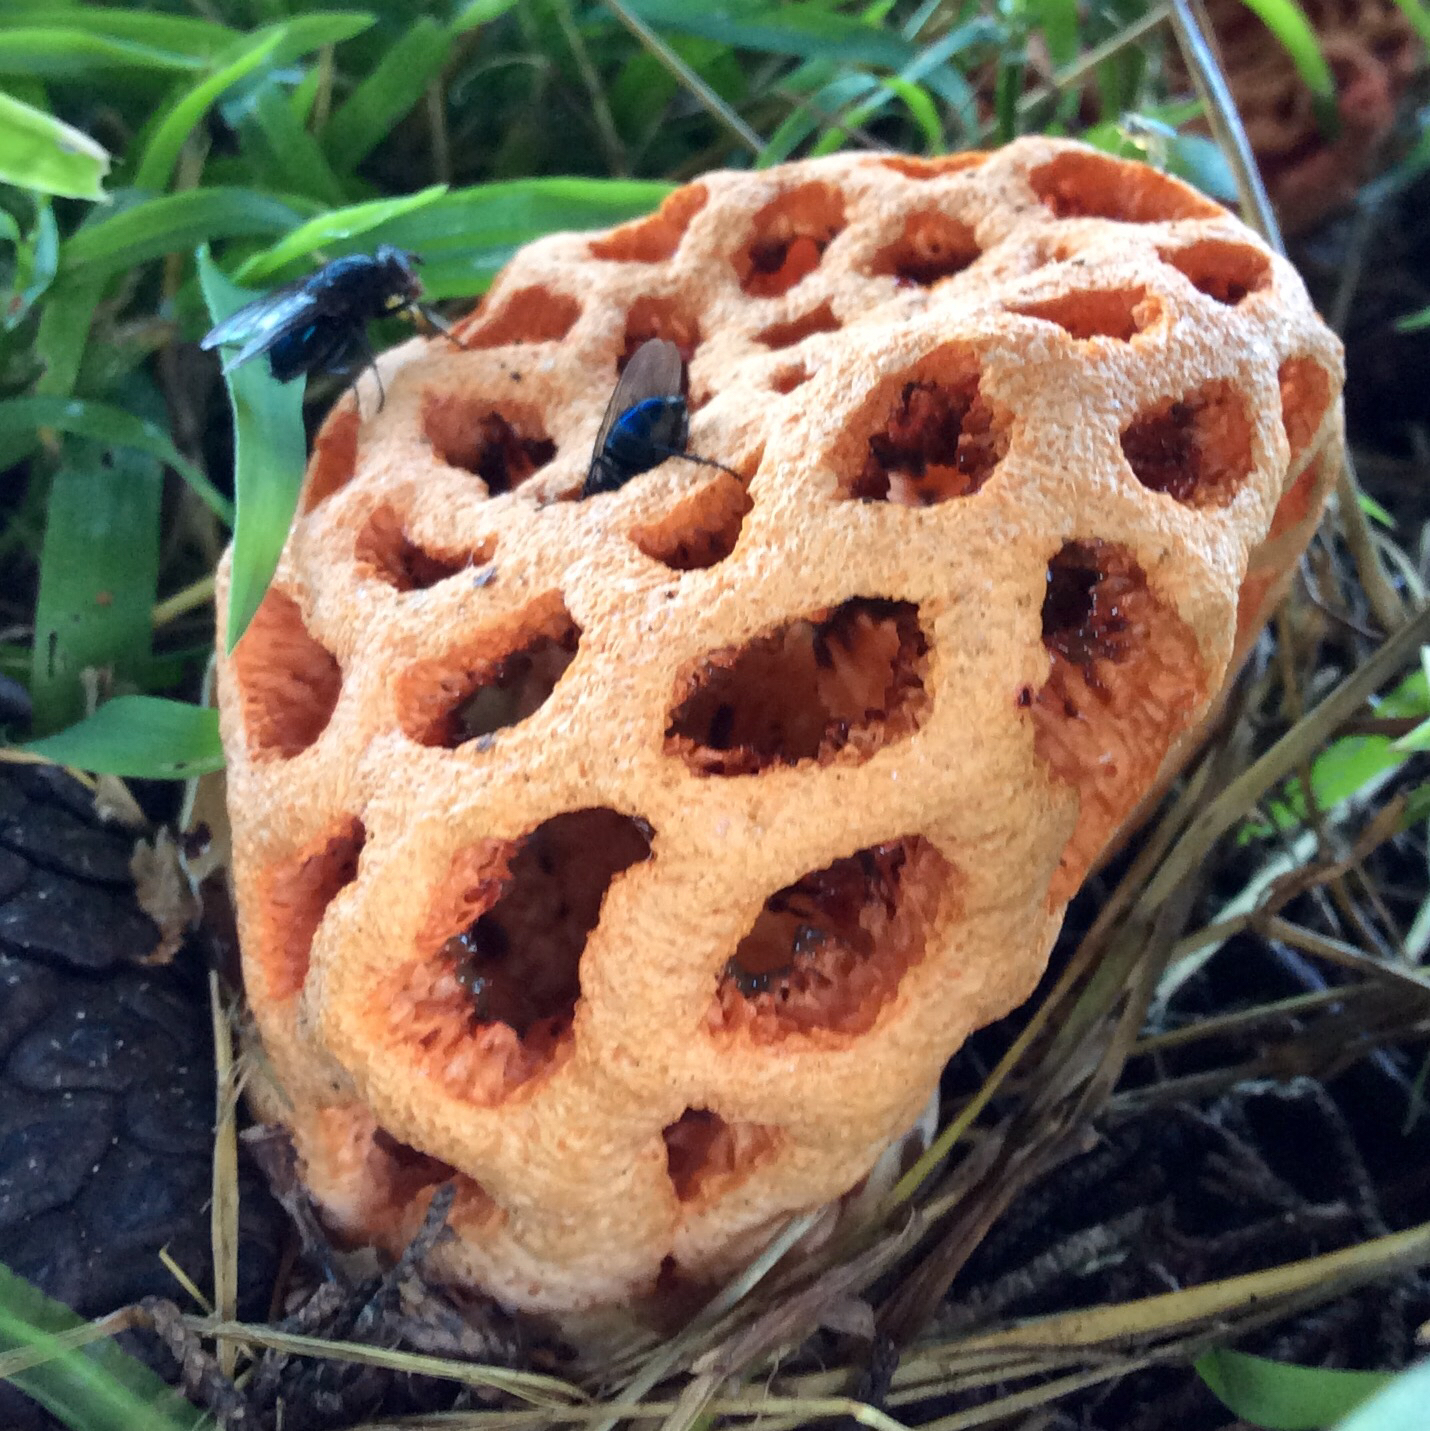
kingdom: Fungi
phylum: Basidiomycota
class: Agaricomycetes
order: Phallales
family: Phallaceae
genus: Clathrus
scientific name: Clathrus ruber
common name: Red cage
